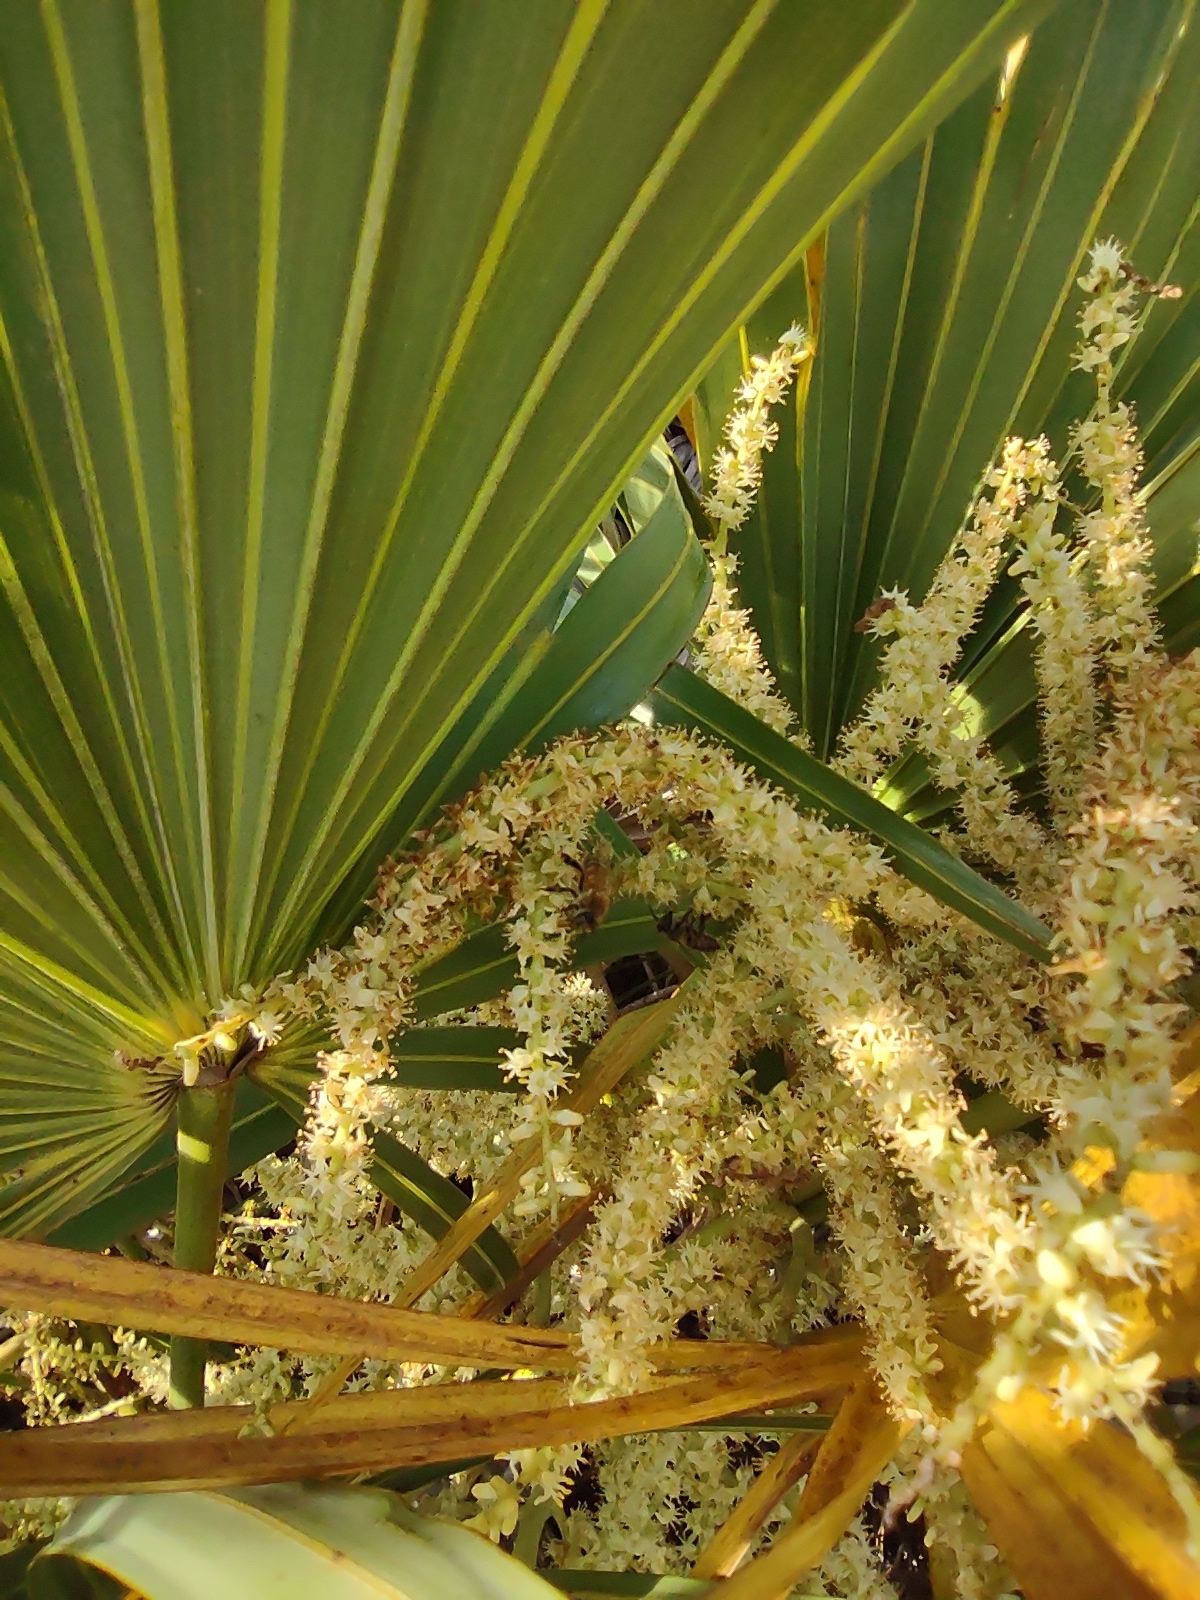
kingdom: Plantae
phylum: Tracheophyta
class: Liliopsida
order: Arecales
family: Arecaceae
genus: Serenoa
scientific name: Serenoa repens
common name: Saw-palmetto
